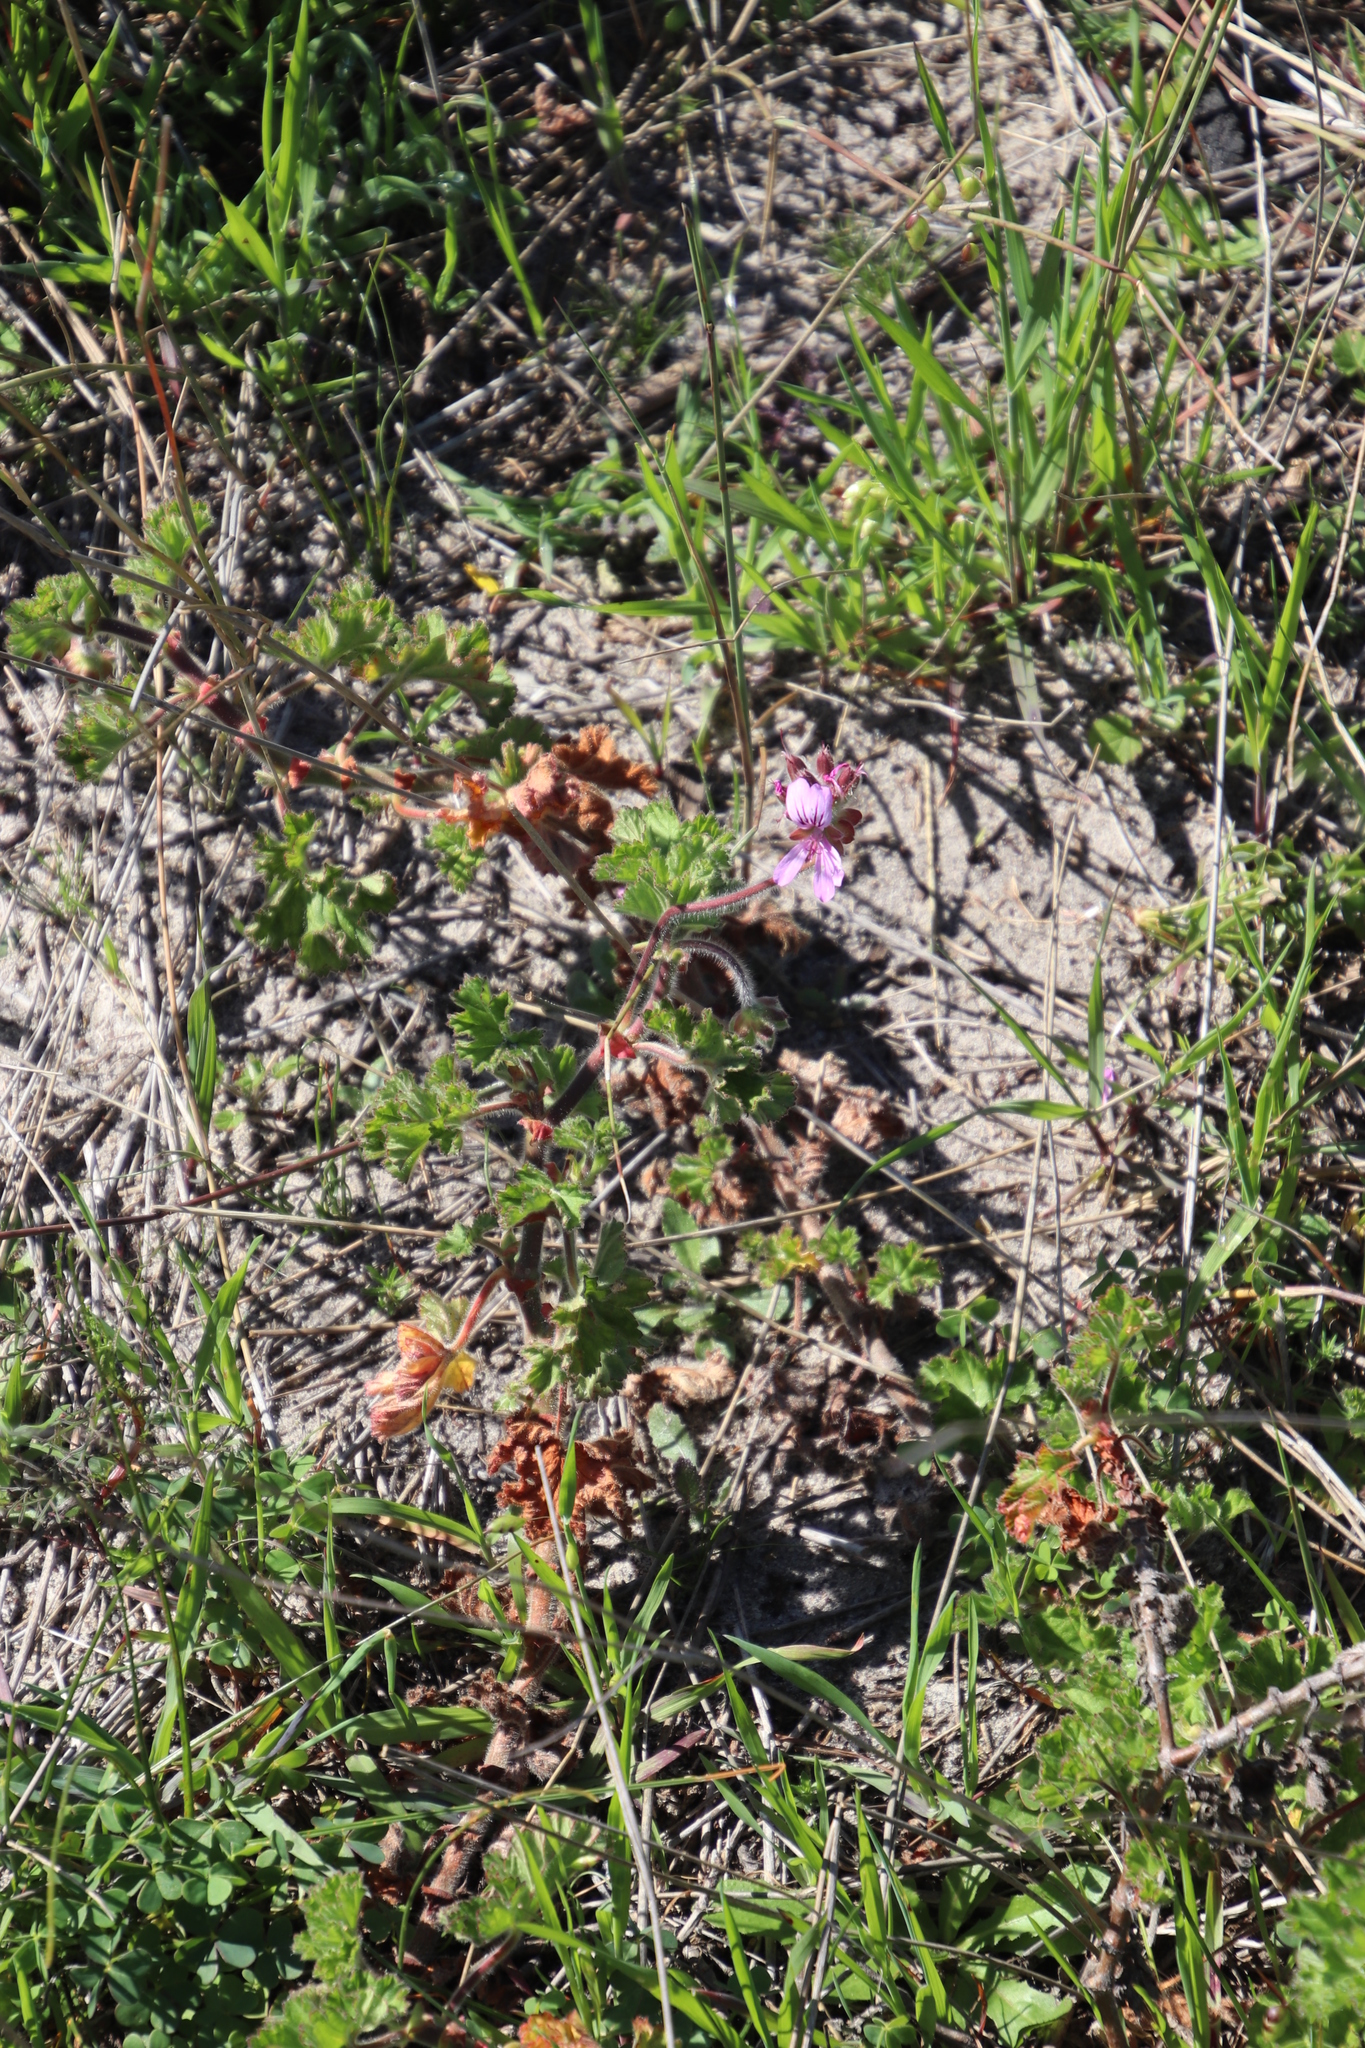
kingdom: Plantae
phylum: Tracheophyta
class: Magnoliopsida
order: Geraniales
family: Geraniaceae
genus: Pelargonium
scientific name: Pelargonium capitatum
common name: Rose scented geranium
